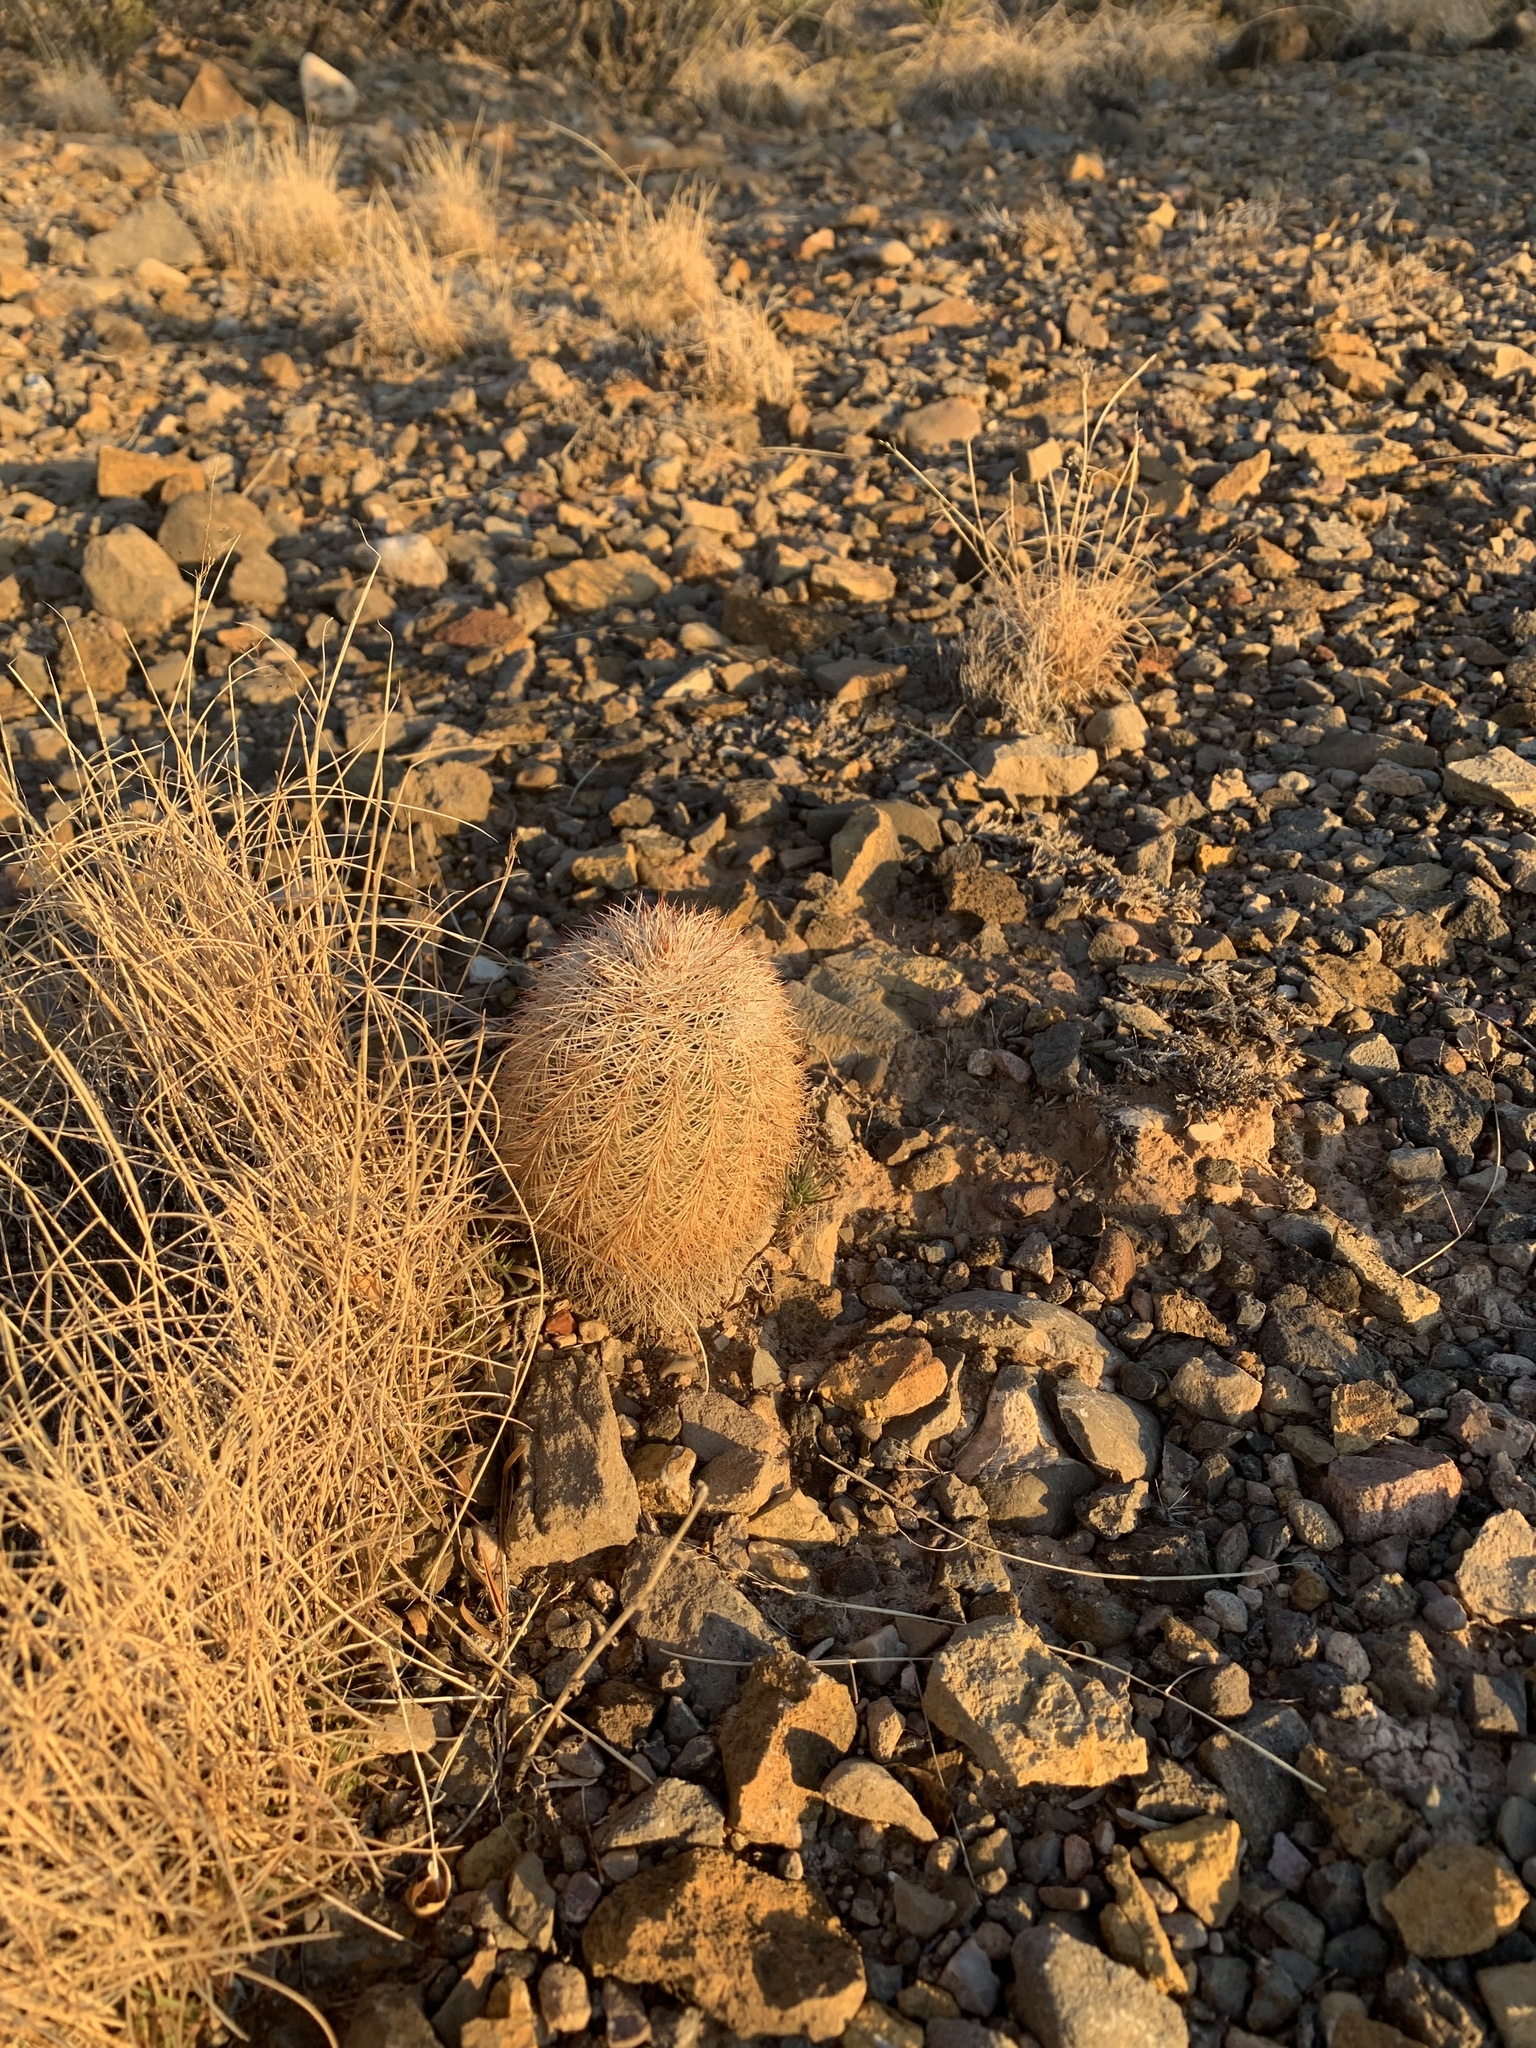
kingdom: Plantae
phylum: Tracheophyta
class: Magnoliopsida
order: Caryophyllales
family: Cactaceae
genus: Echinocereus
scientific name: Echinocereus dasyacanthus
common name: Spiny hedgehog cactus
